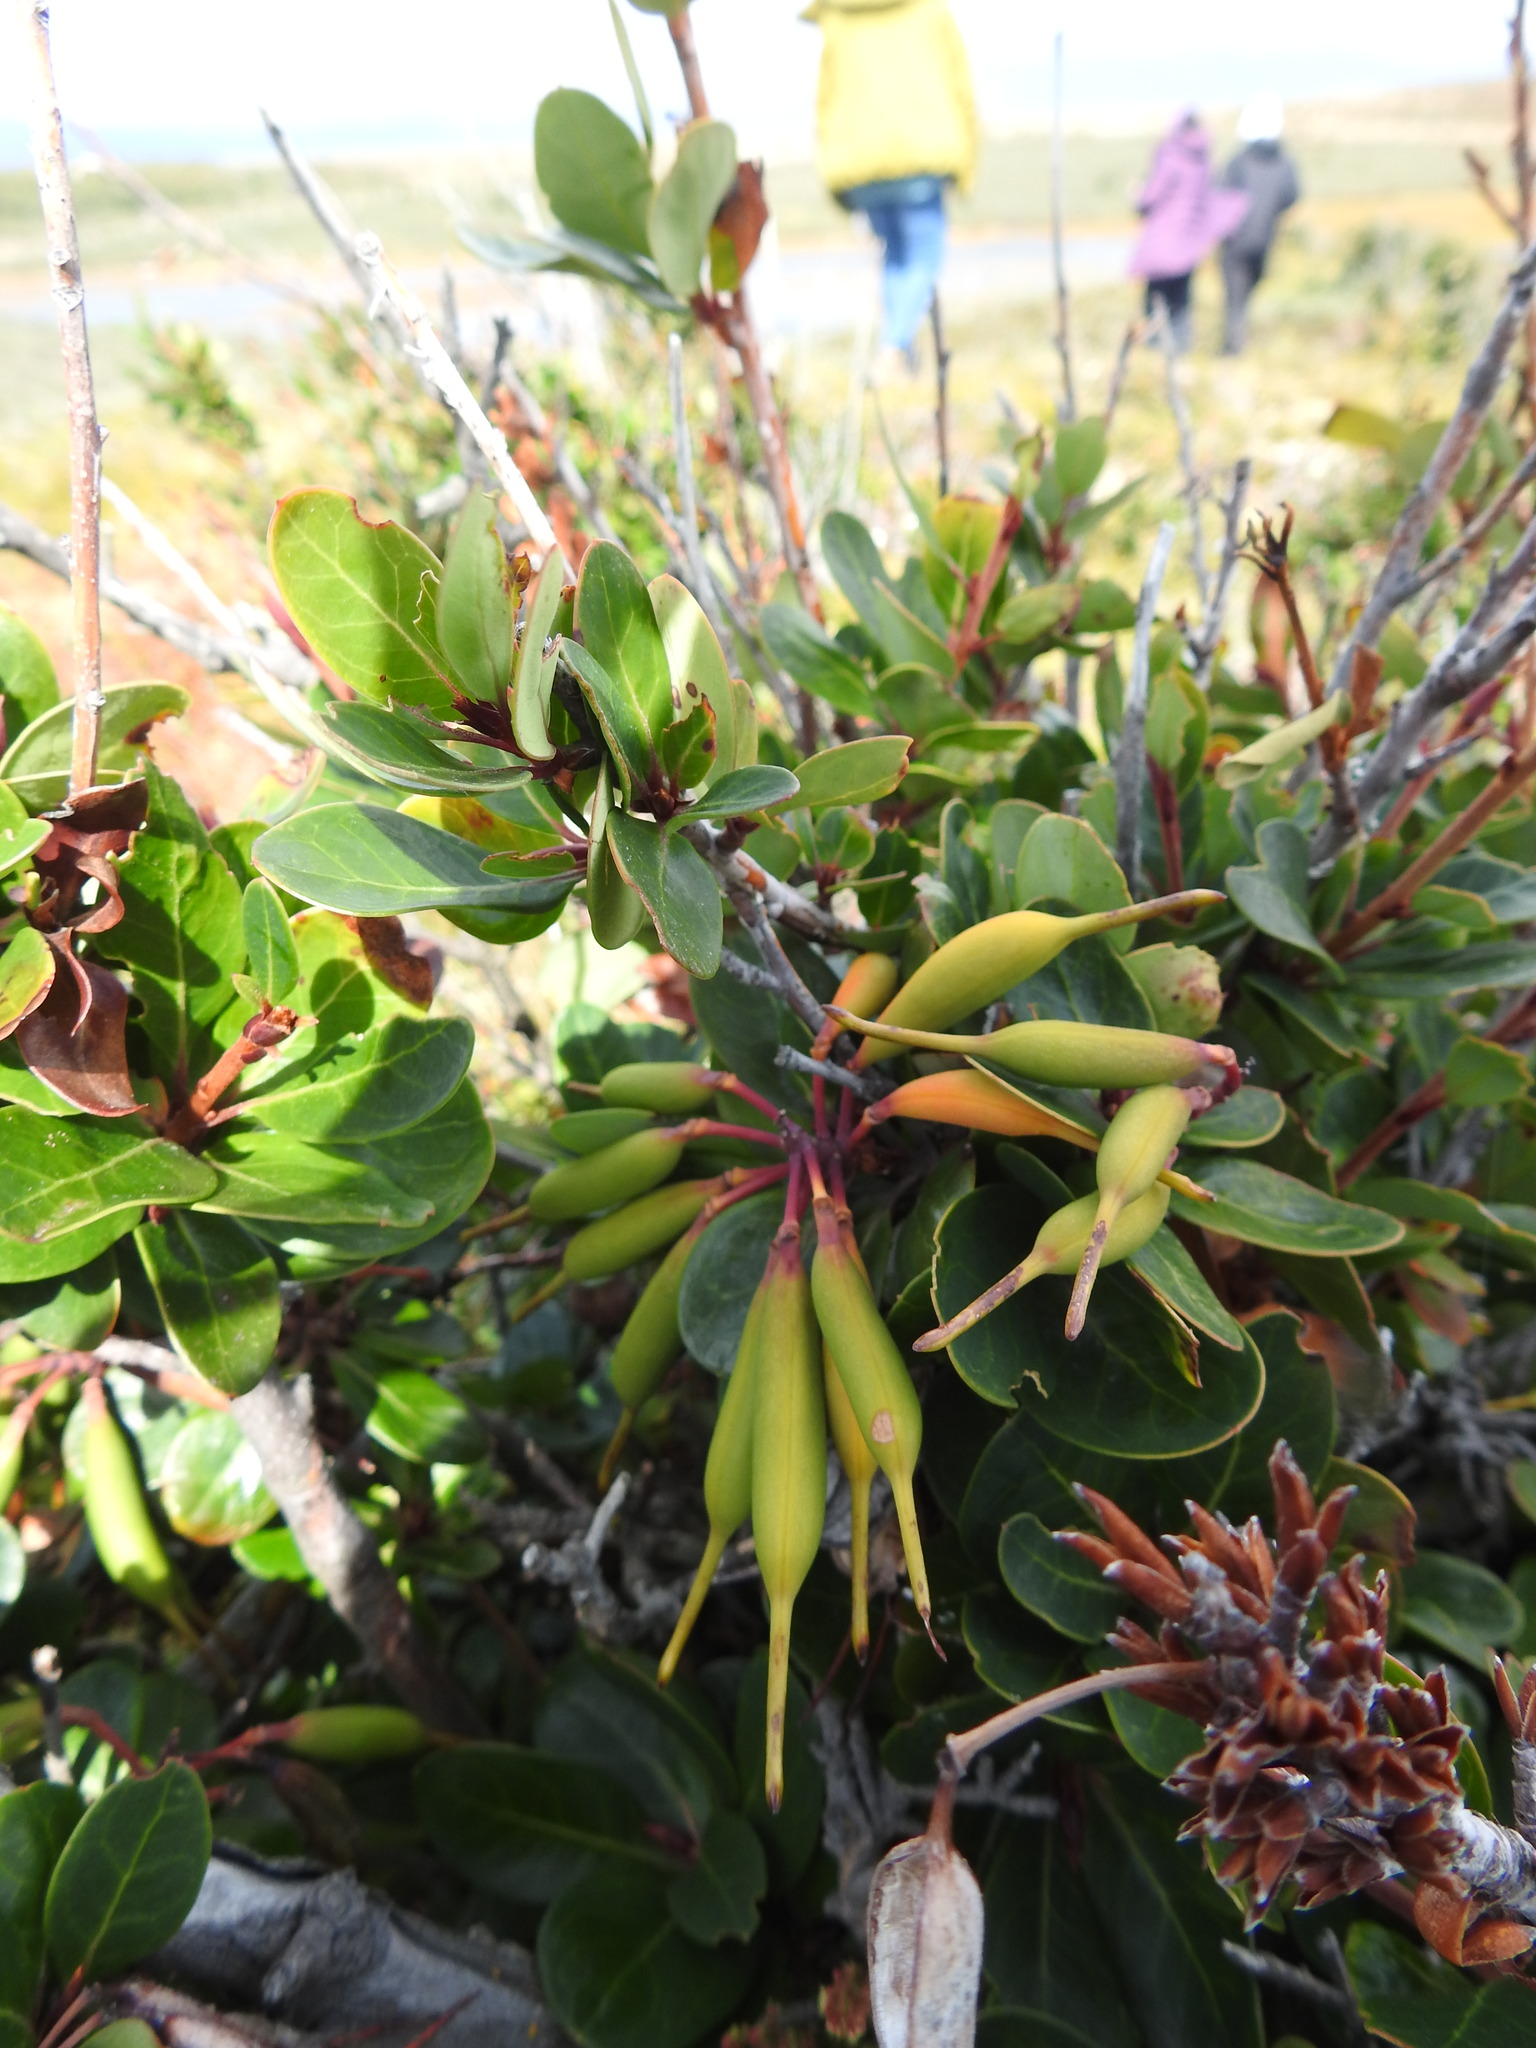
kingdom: Plantae
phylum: Tracheophyta
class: Magnoliopsida
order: Proteales
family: Proteaceae
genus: Embothrium
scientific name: Embothrium coccineum
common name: Chilean firebush
